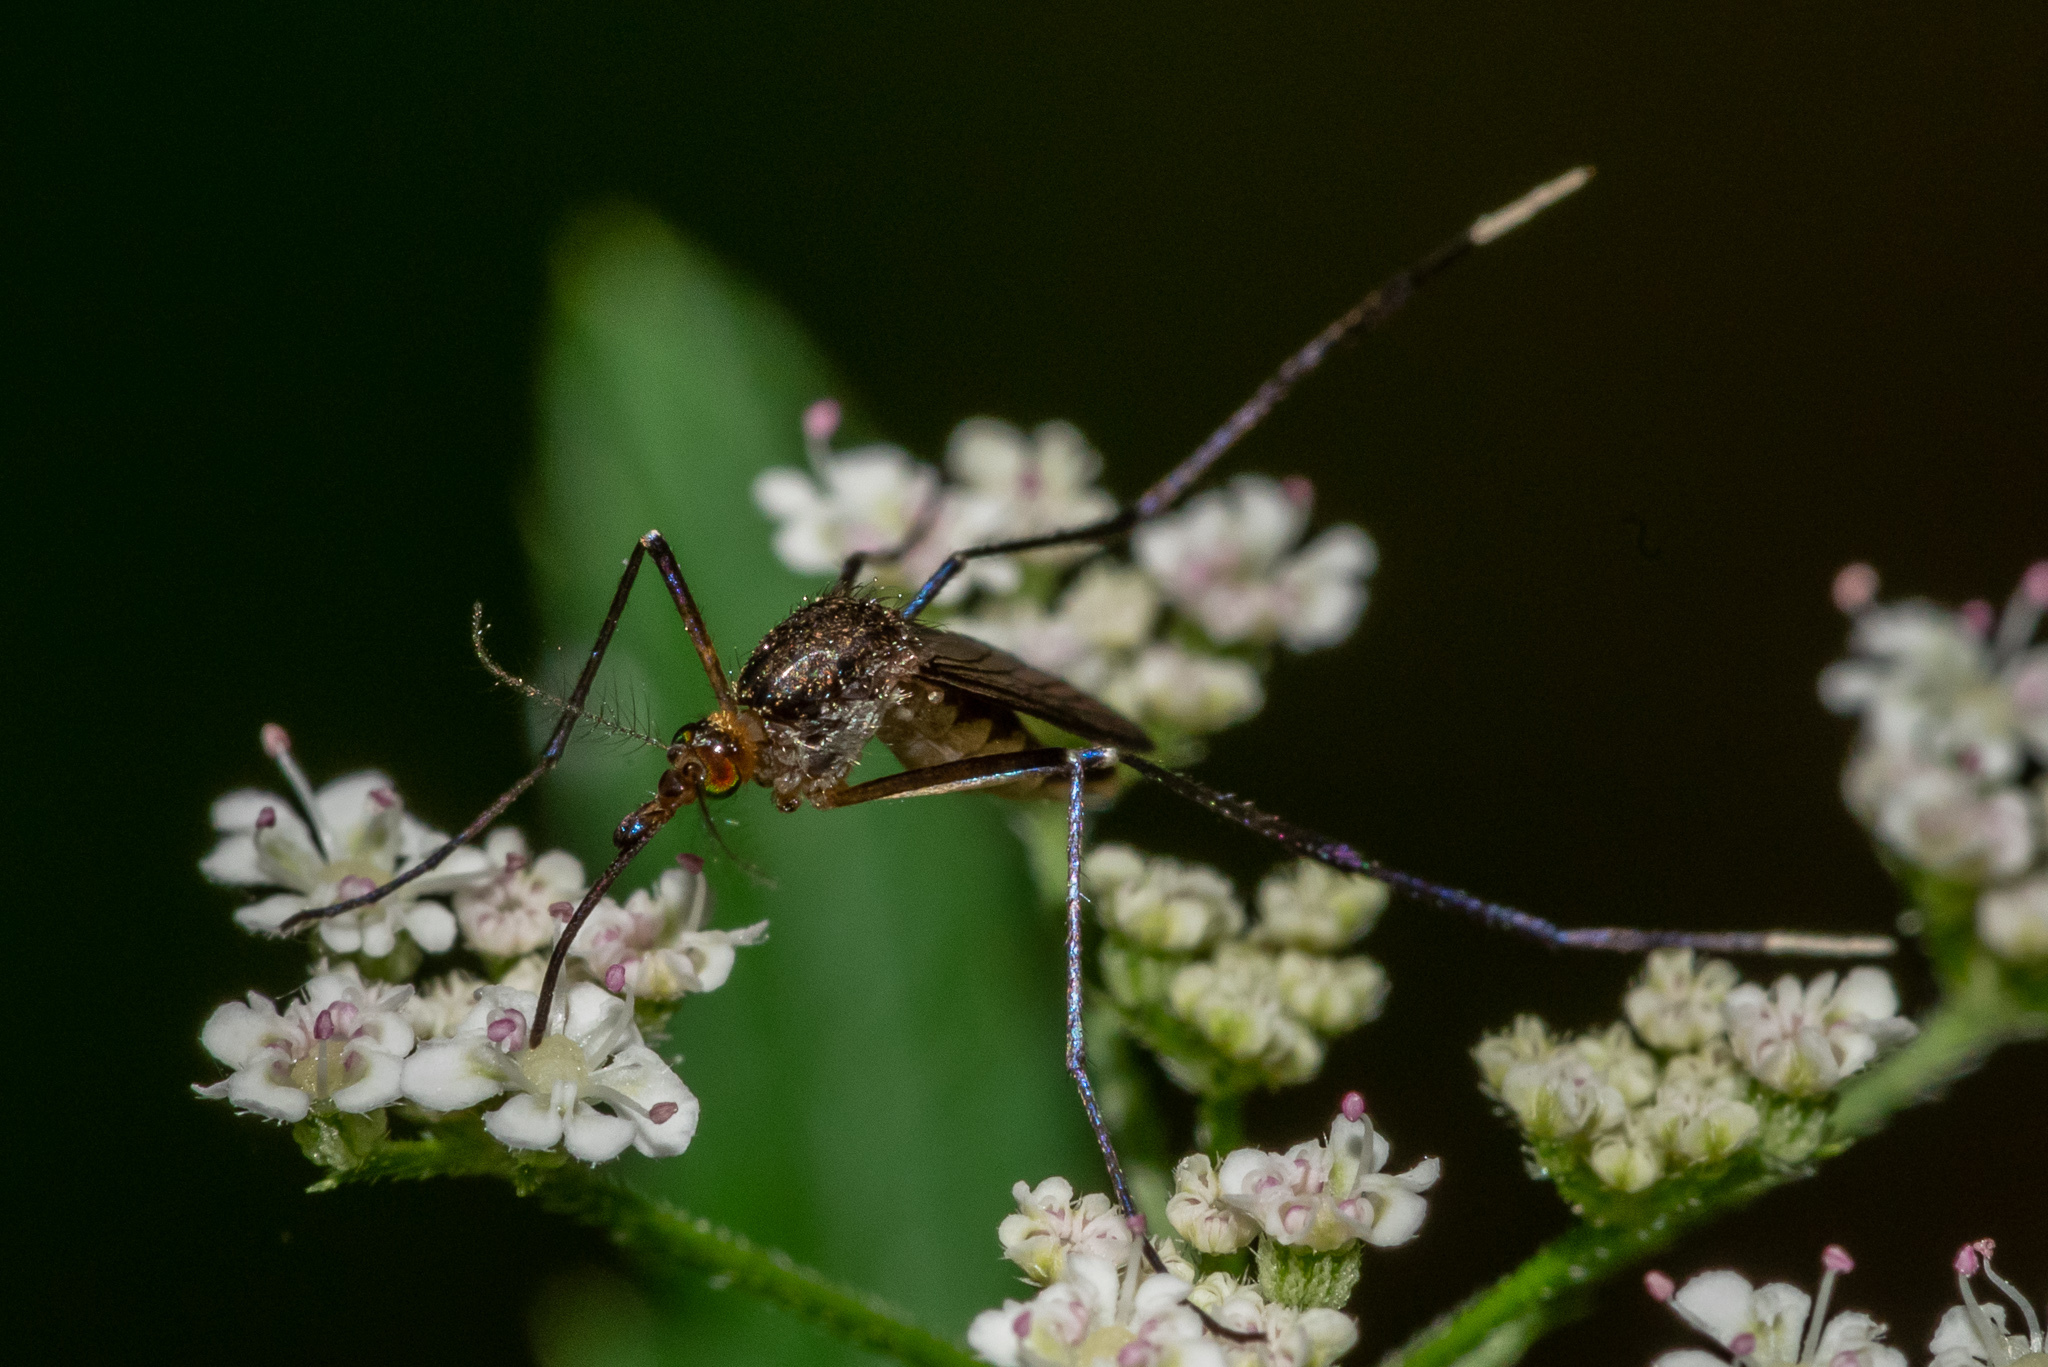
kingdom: Animalia
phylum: Arthropoda
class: Insecta
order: Diptera
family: Culicidae
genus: Psorophora
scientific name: Psorophora ferox
